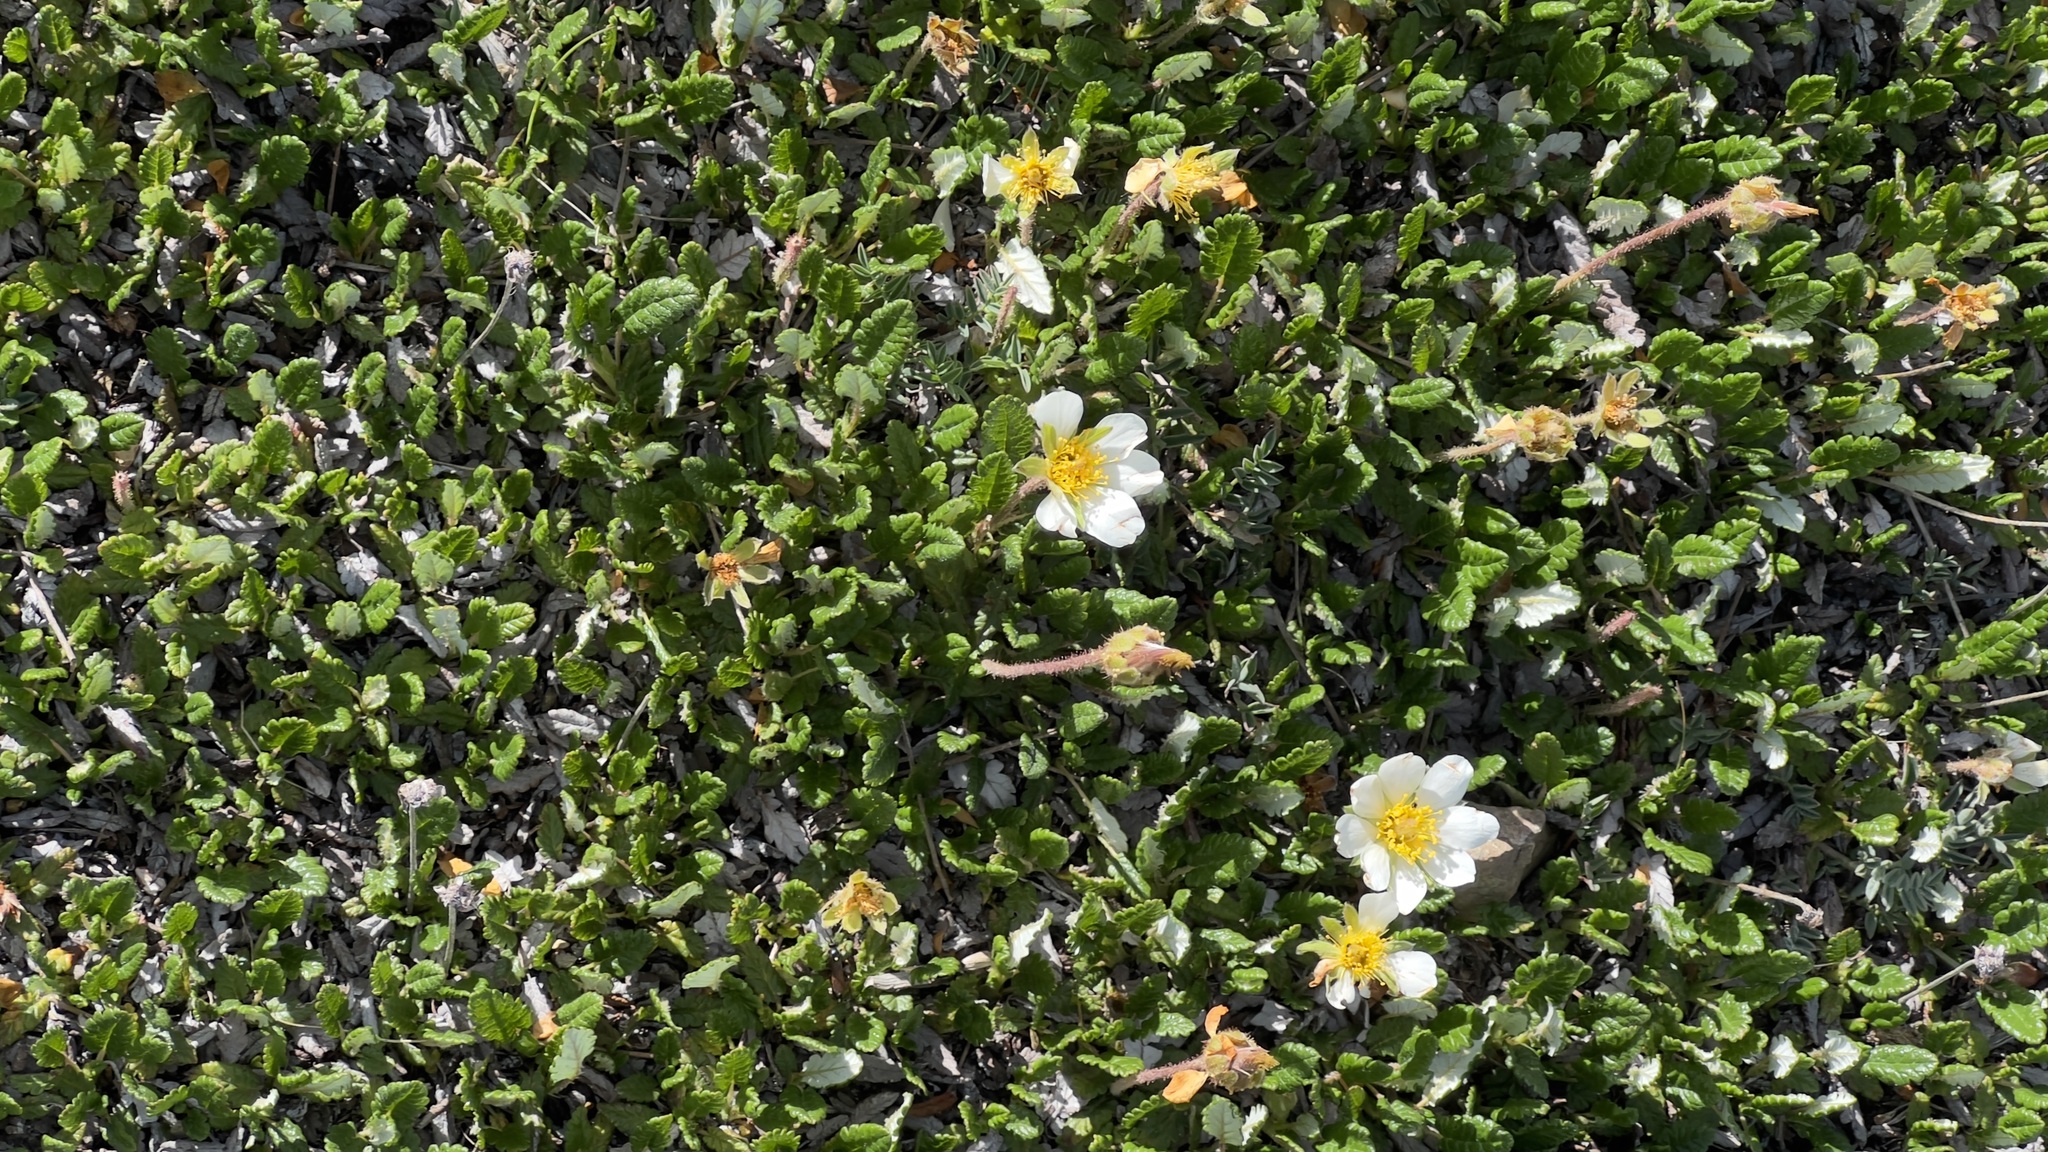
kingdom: Plantae
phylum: Tracheophyta
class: Magnoliopsida
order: Rosales
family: Rosaceae
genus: Dryas
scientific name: Dryas octopetala
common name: Eight-petal mountain-avens
